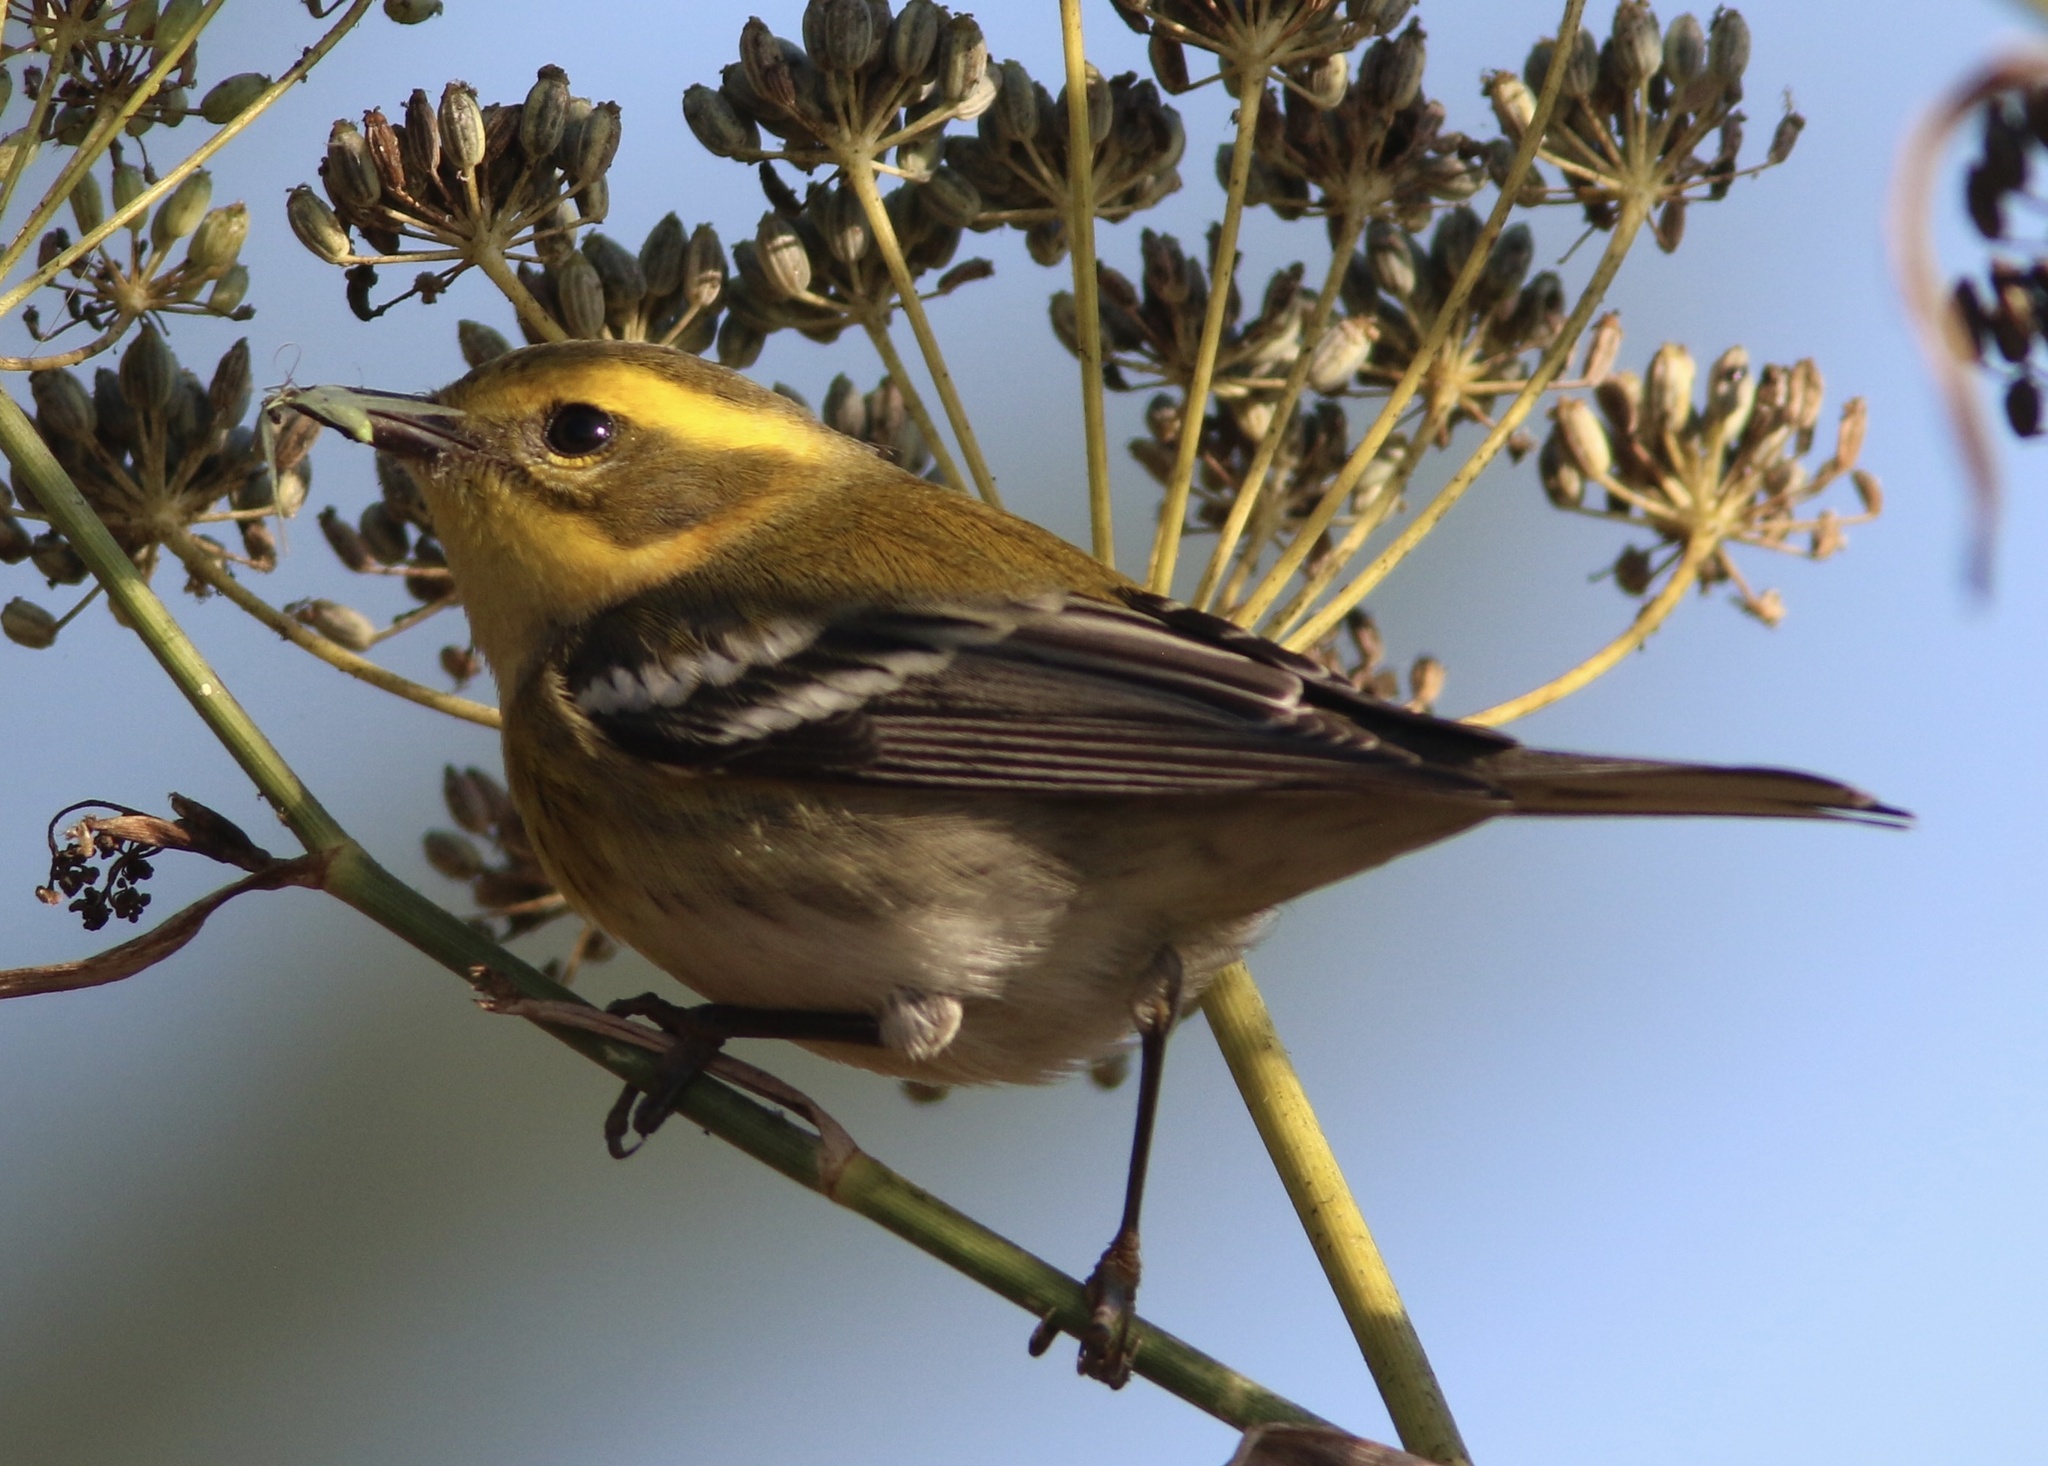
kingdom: Animalia
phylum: Chordata
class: Aves
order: Passeriformes
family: Parulidae
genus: Setophaga
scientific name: Setophaga townsendi
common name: Townsend's warbler
